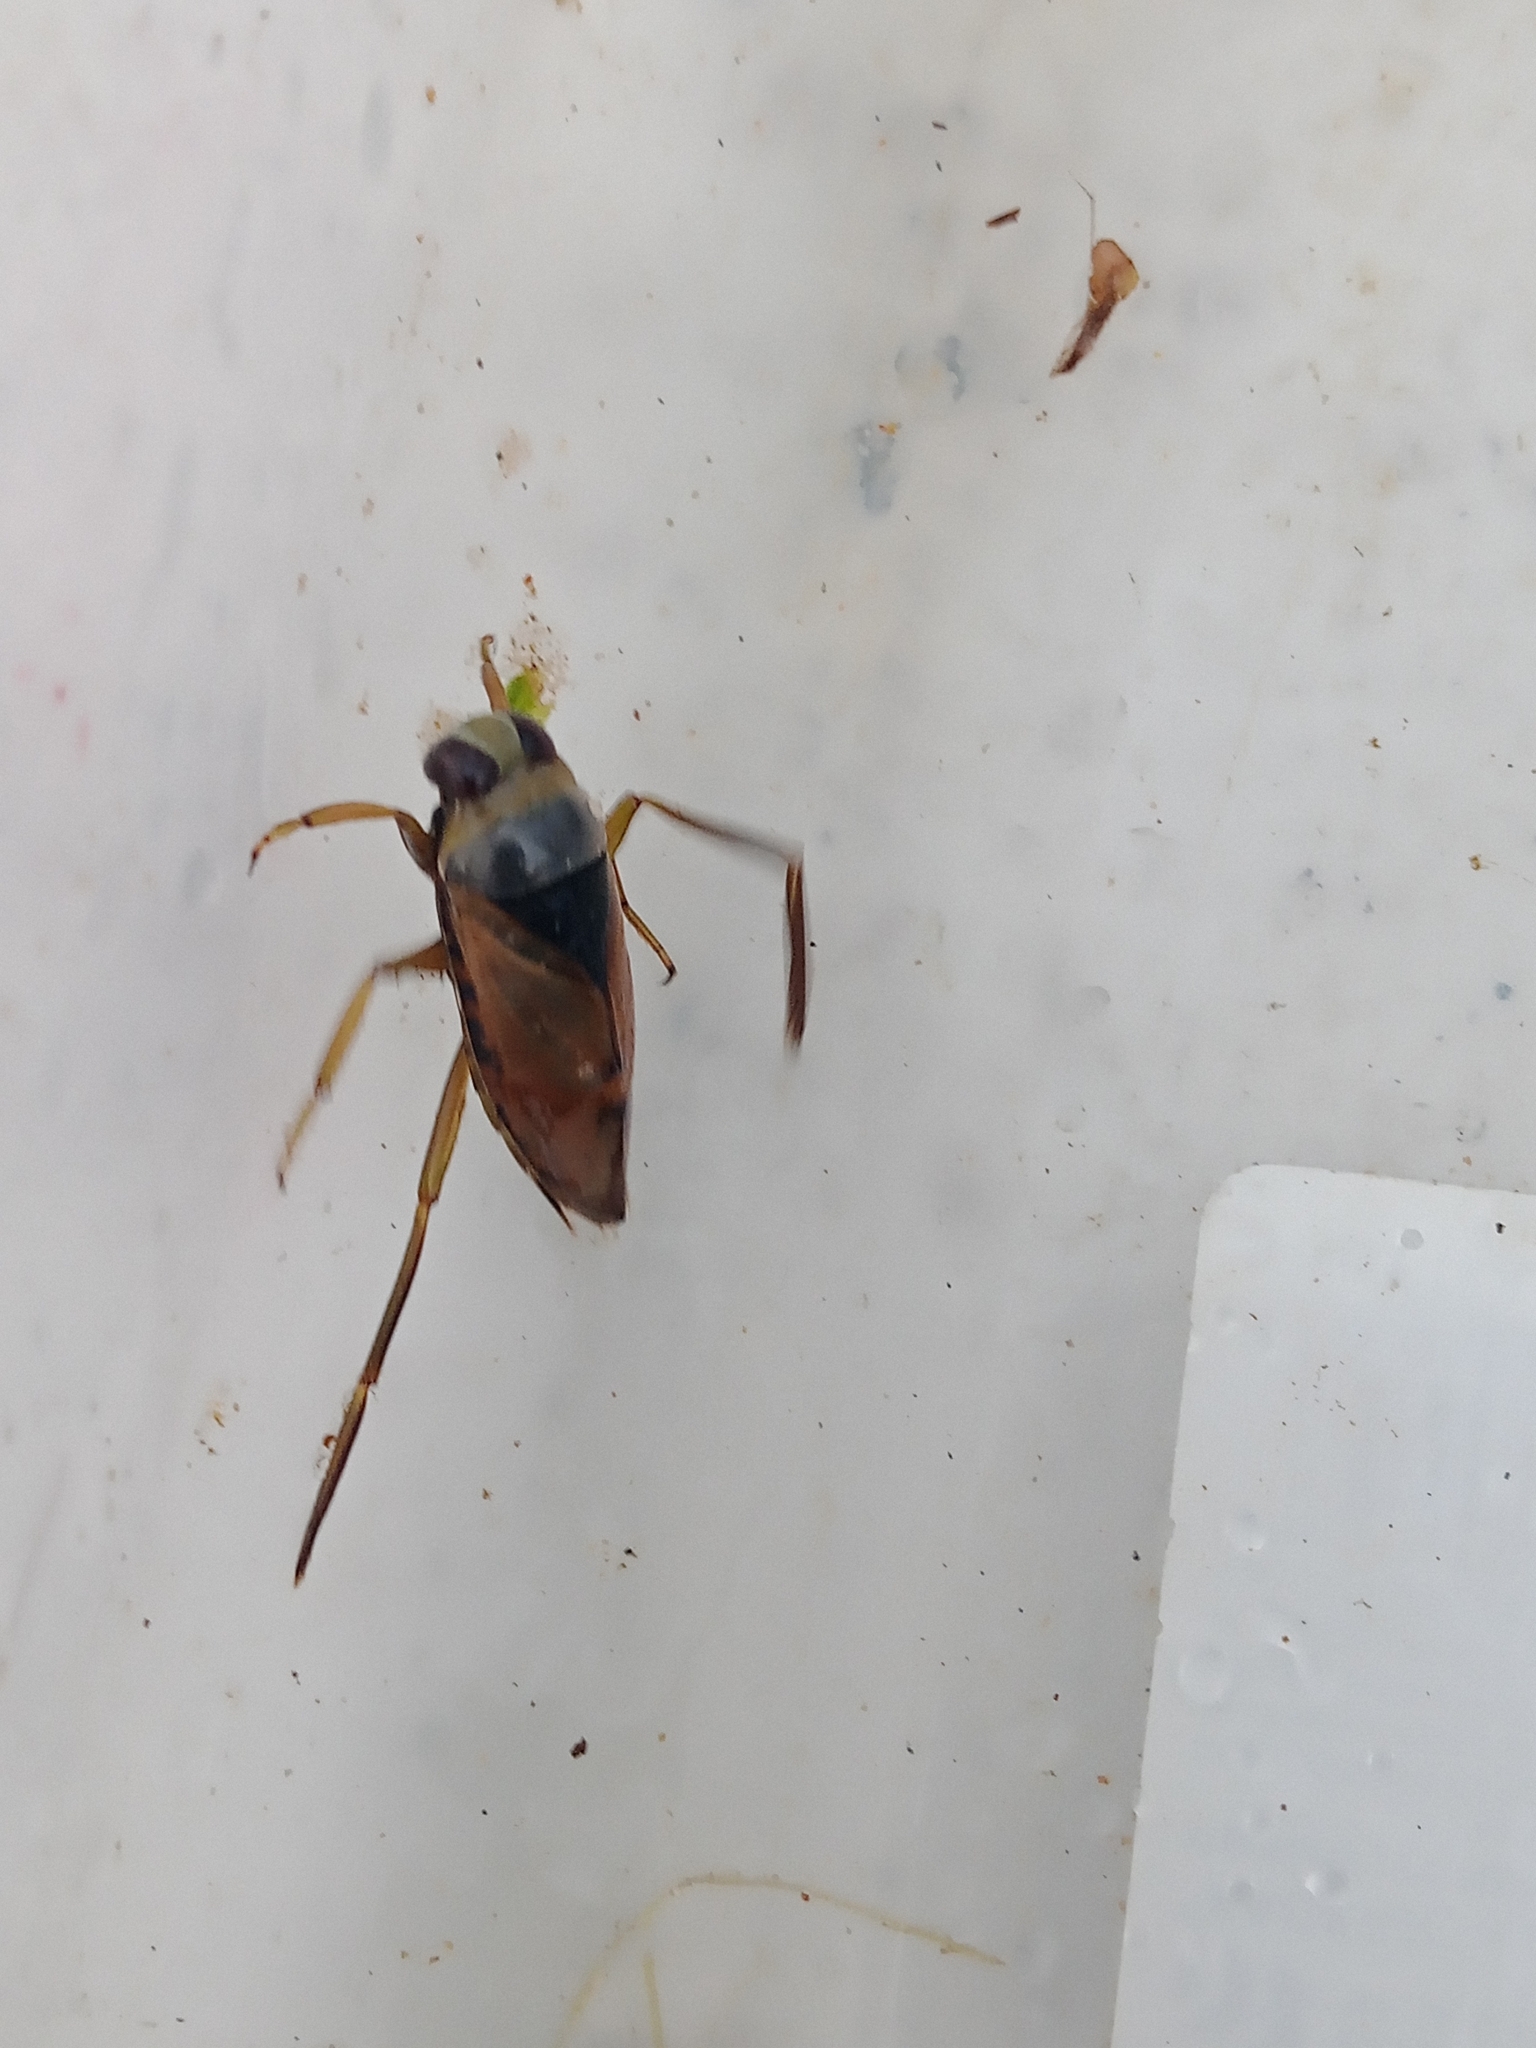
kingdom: Animalia
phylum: Arthropoda
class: Insecta
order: Hemiptera
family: Notonectidae
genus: Notonecta
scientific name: Notonecta glauca
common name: Common water-boatman
